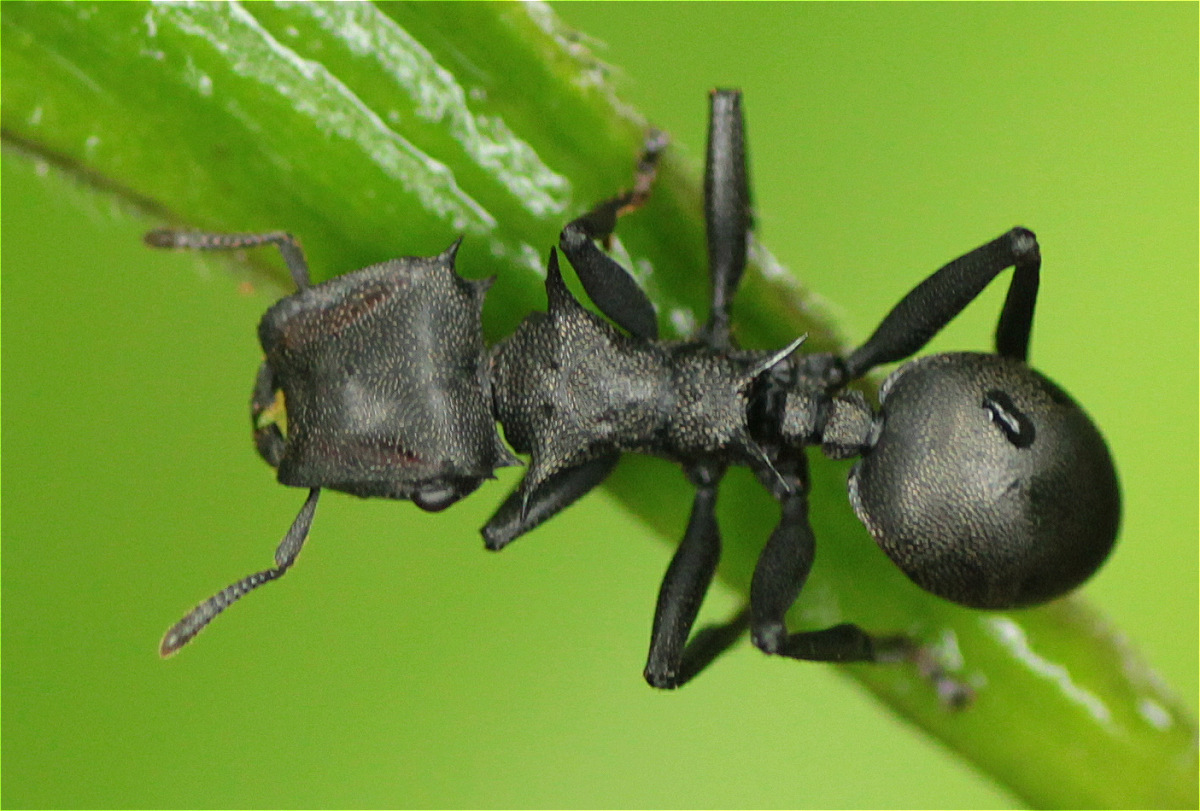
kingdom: Animalia
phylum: Arthropoda
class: Insecta
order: Hymenoptera
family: Formicidae
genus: Cephalotes
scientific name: Cephalotes atratus
